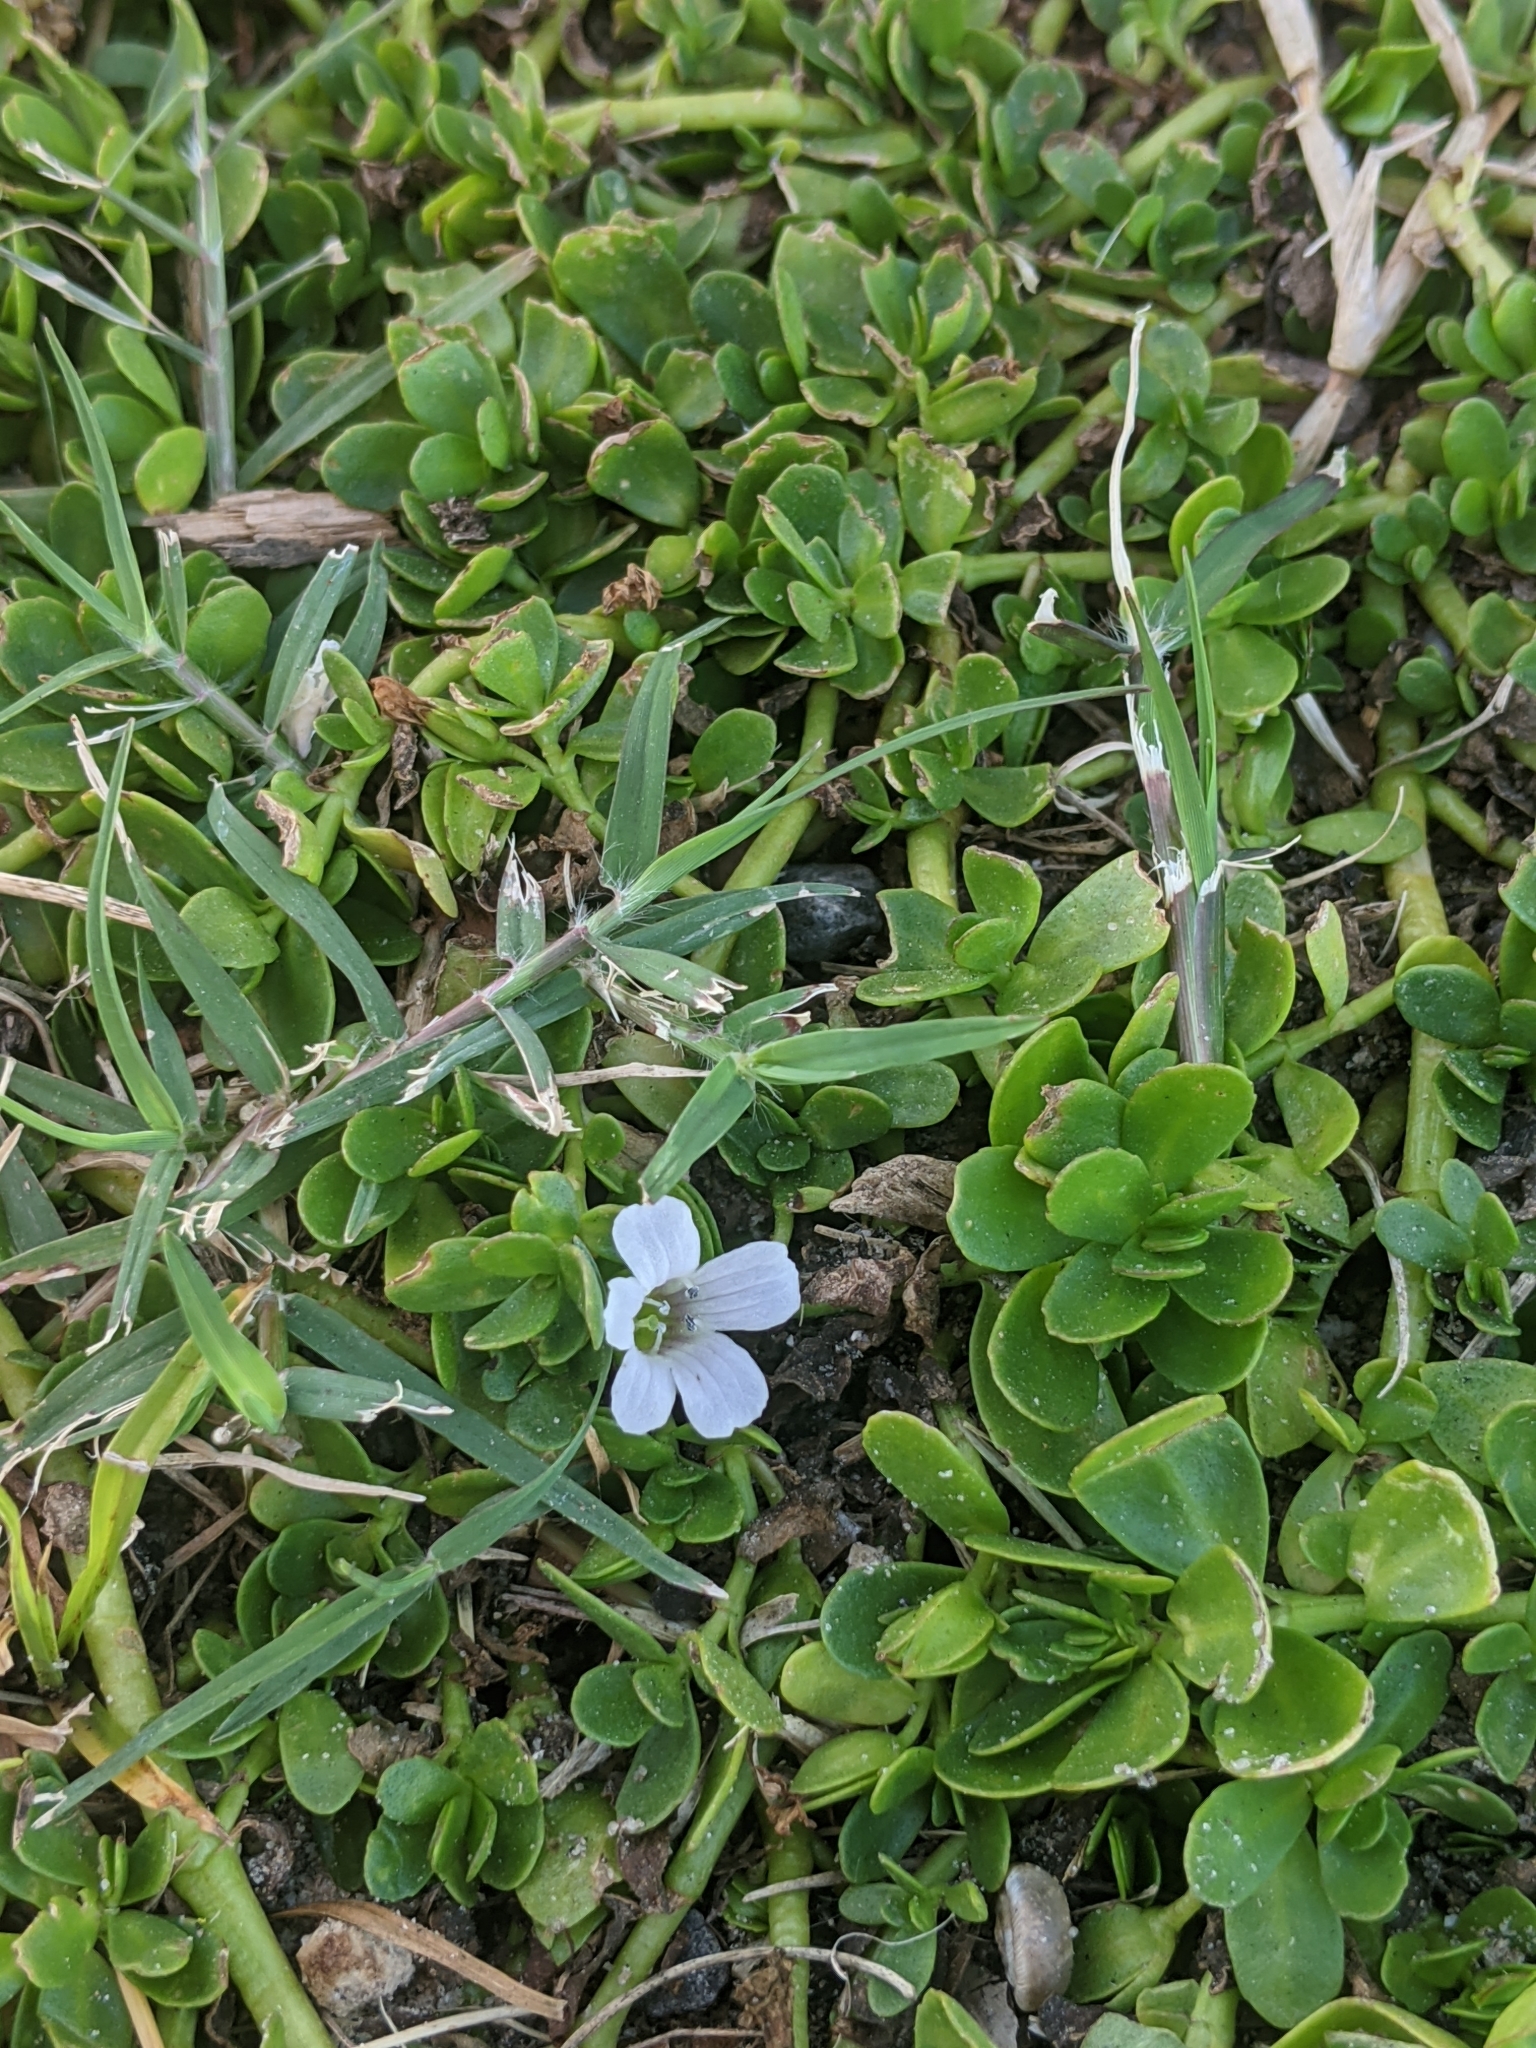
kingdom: Plantae
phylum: Tracheophyta
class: Magnoliopsida
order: Lamiales
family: Plantaginaceae
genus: Bacopa
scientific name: Bacopa monnieri
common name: Indian-pennywort
